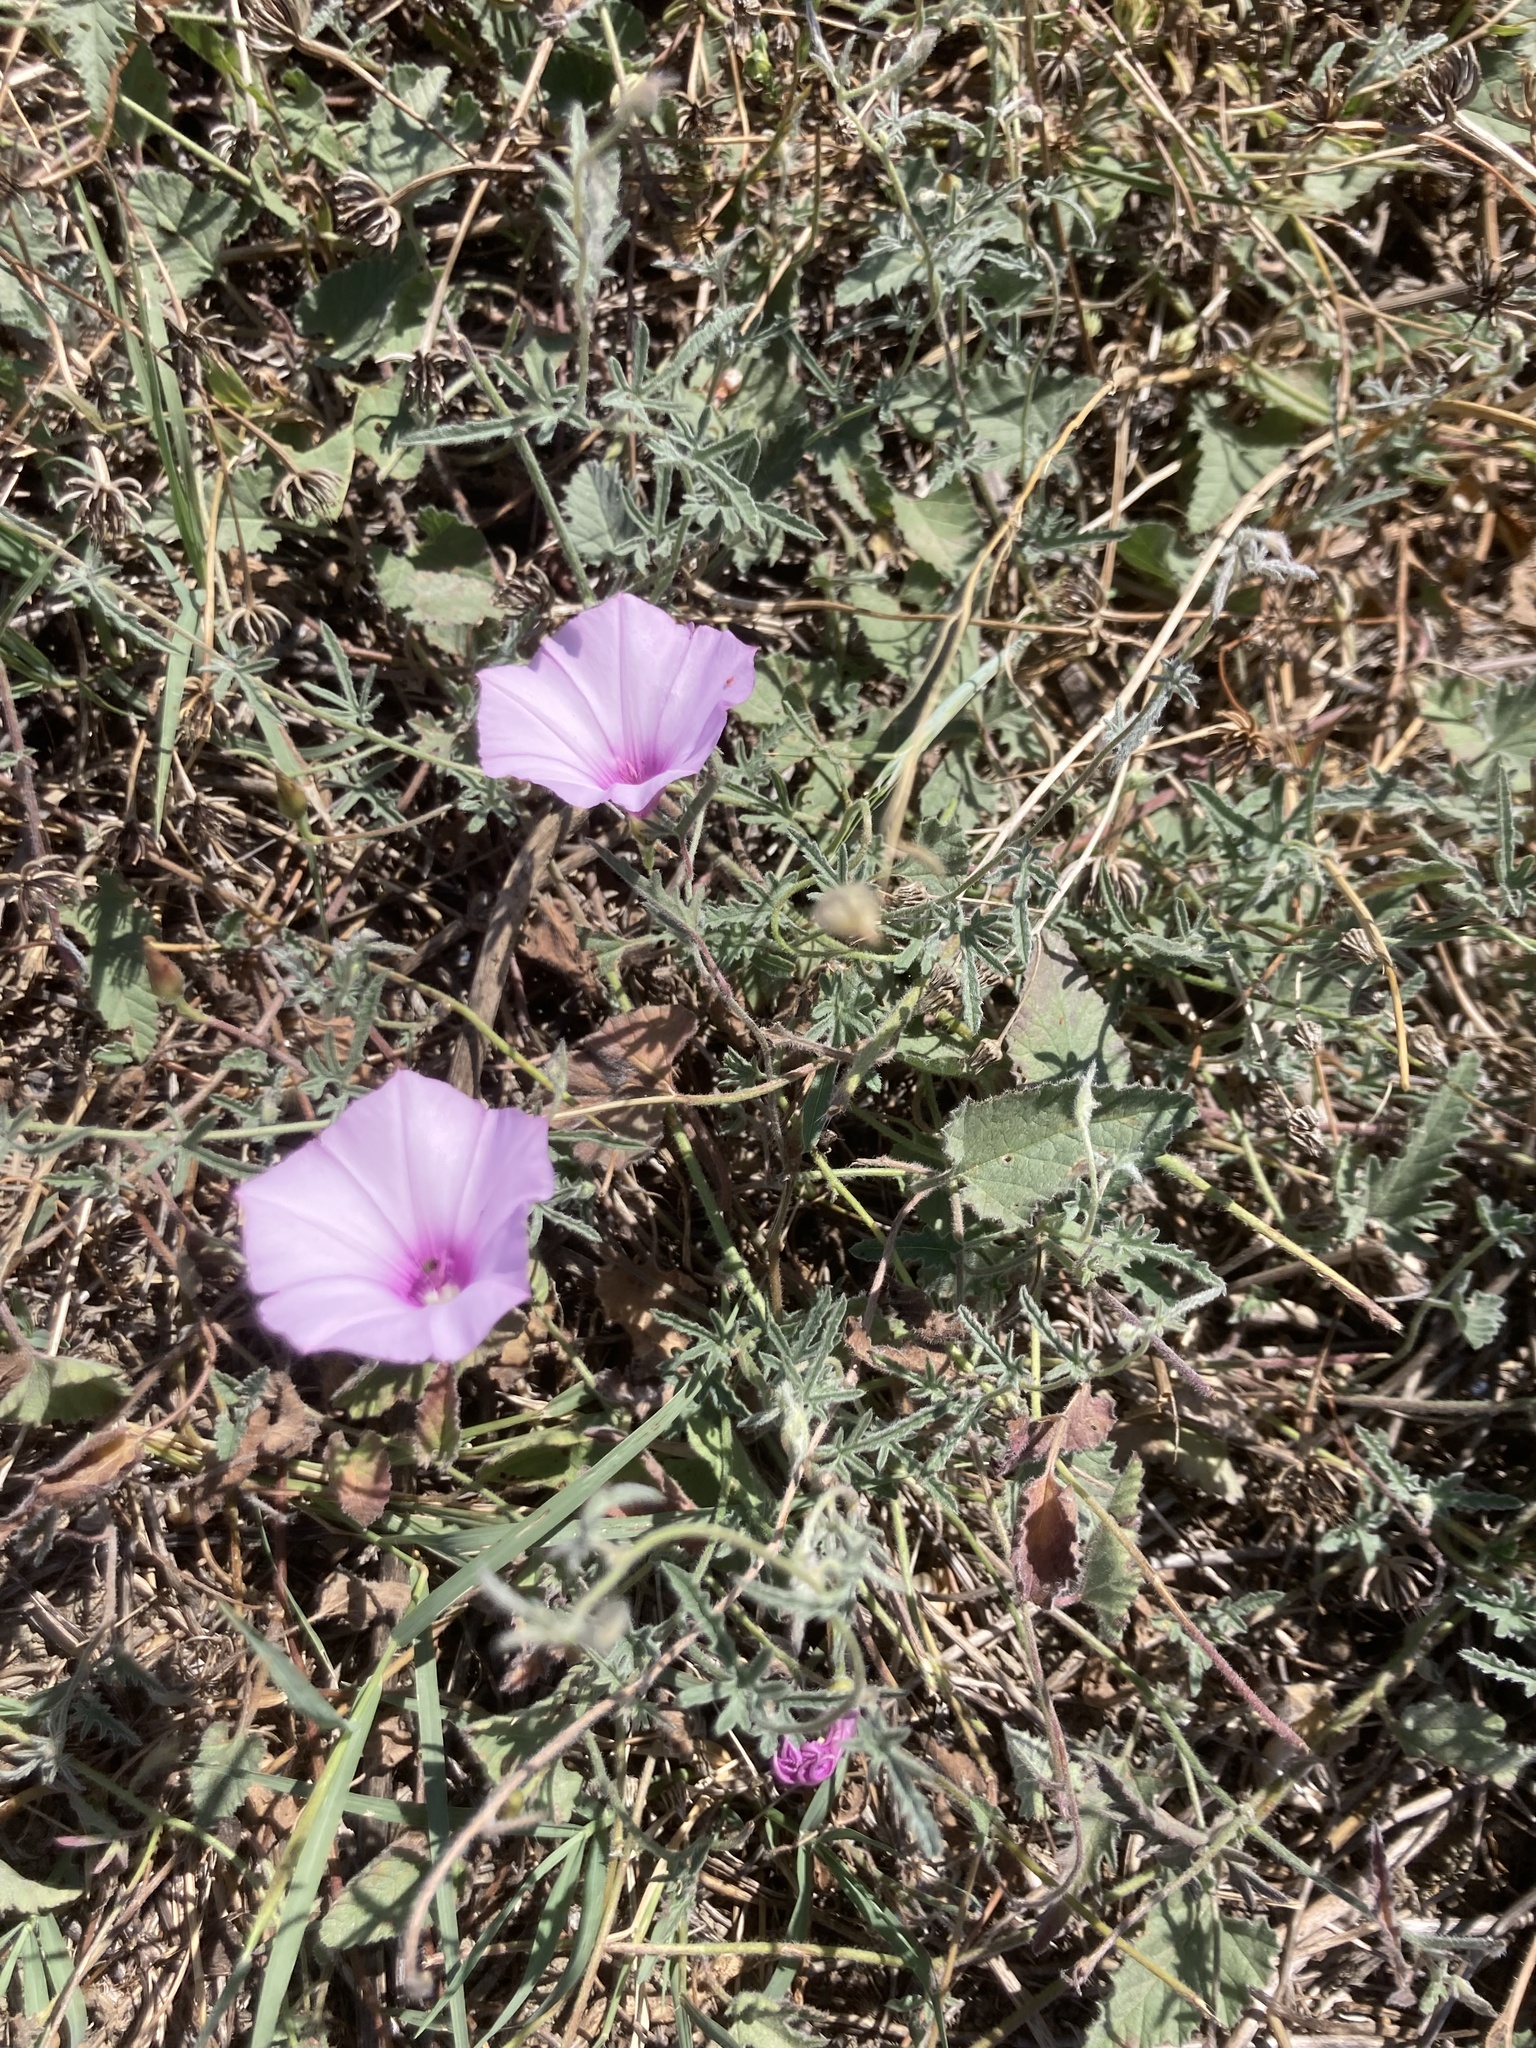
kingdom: Plantae
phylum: Tracheophyta
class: Magnoliopsida
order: Solanales
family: Convolvulaceae
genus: Convolvulus
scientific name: Convolvulus althaeoides
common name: Mallow bindweed
